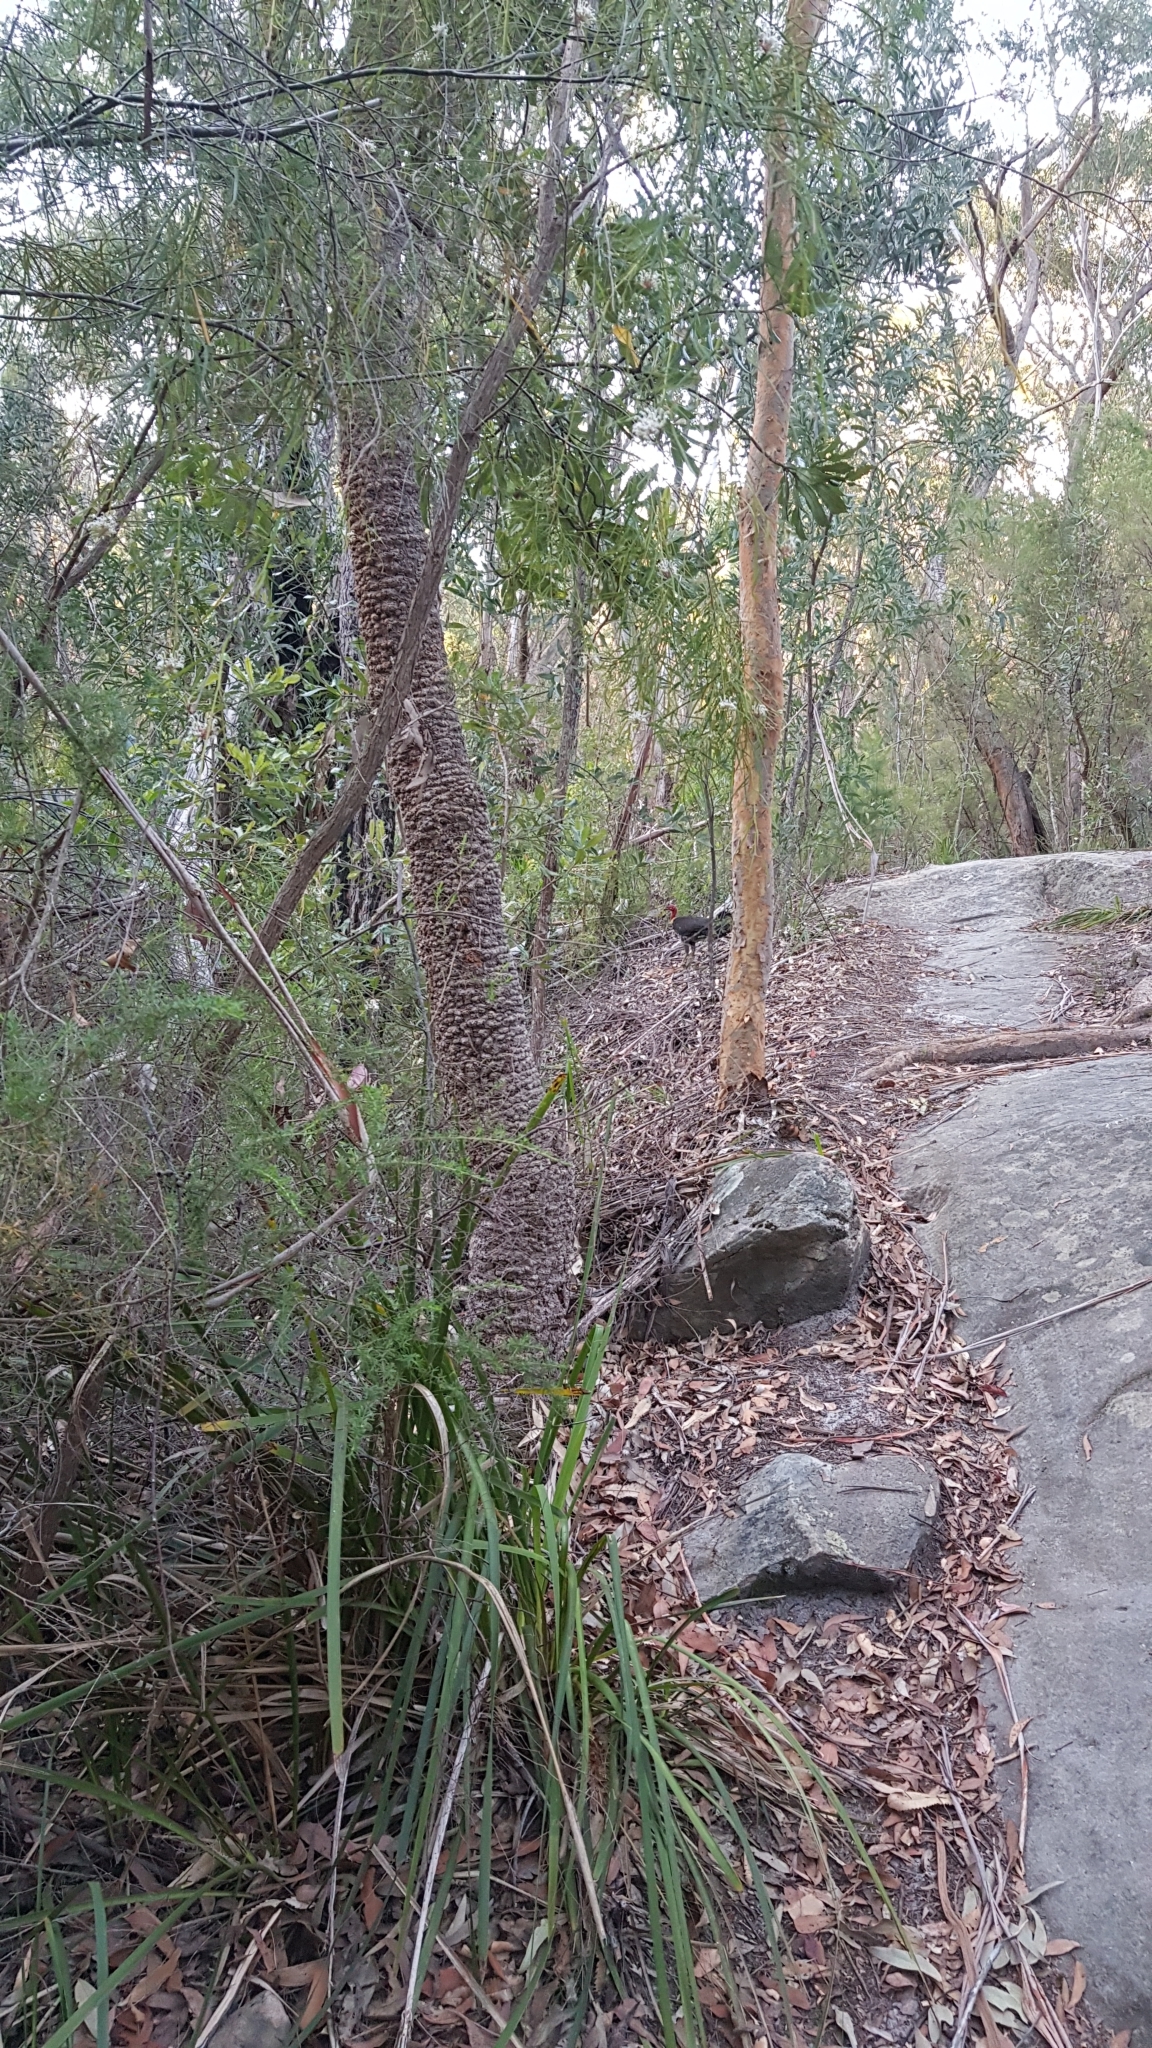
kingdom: Animalia
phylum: Chordata
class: Aves
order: Galliformes
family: Megapodiidae
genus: Alectura
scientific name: Alectura lathami
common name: Australian brushturkey
